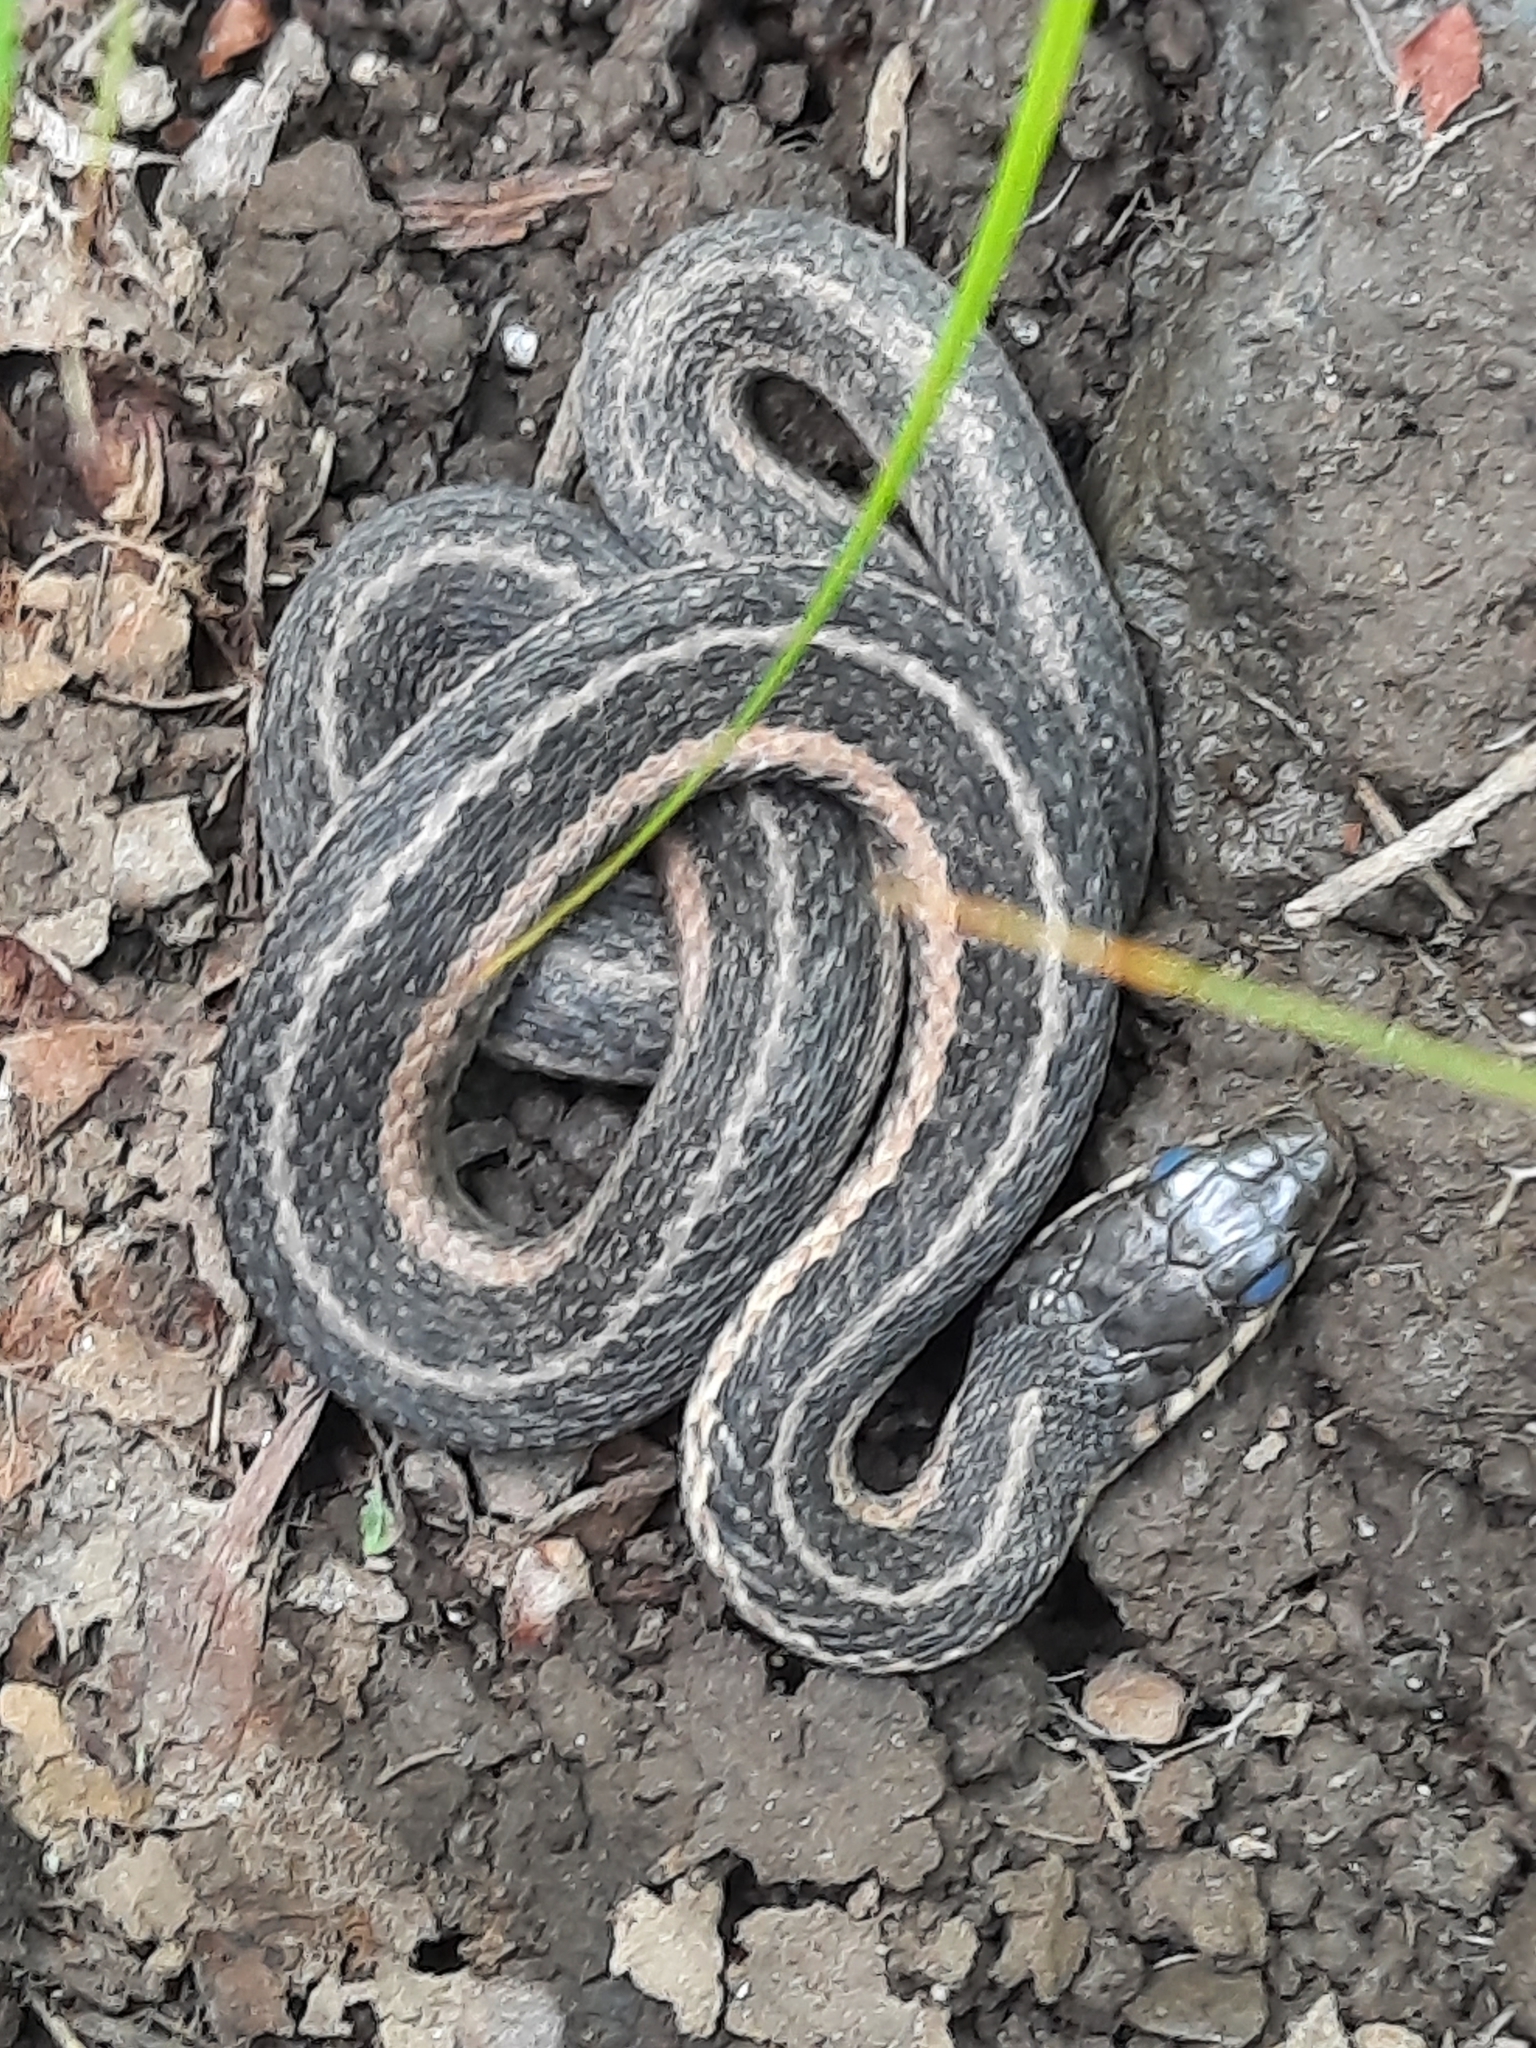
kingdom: Animalia
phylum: Chordata
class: Squamata
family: Colubridae
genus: Thamnophis
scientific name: Thamnophis sirtalis
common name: Common garter snake
